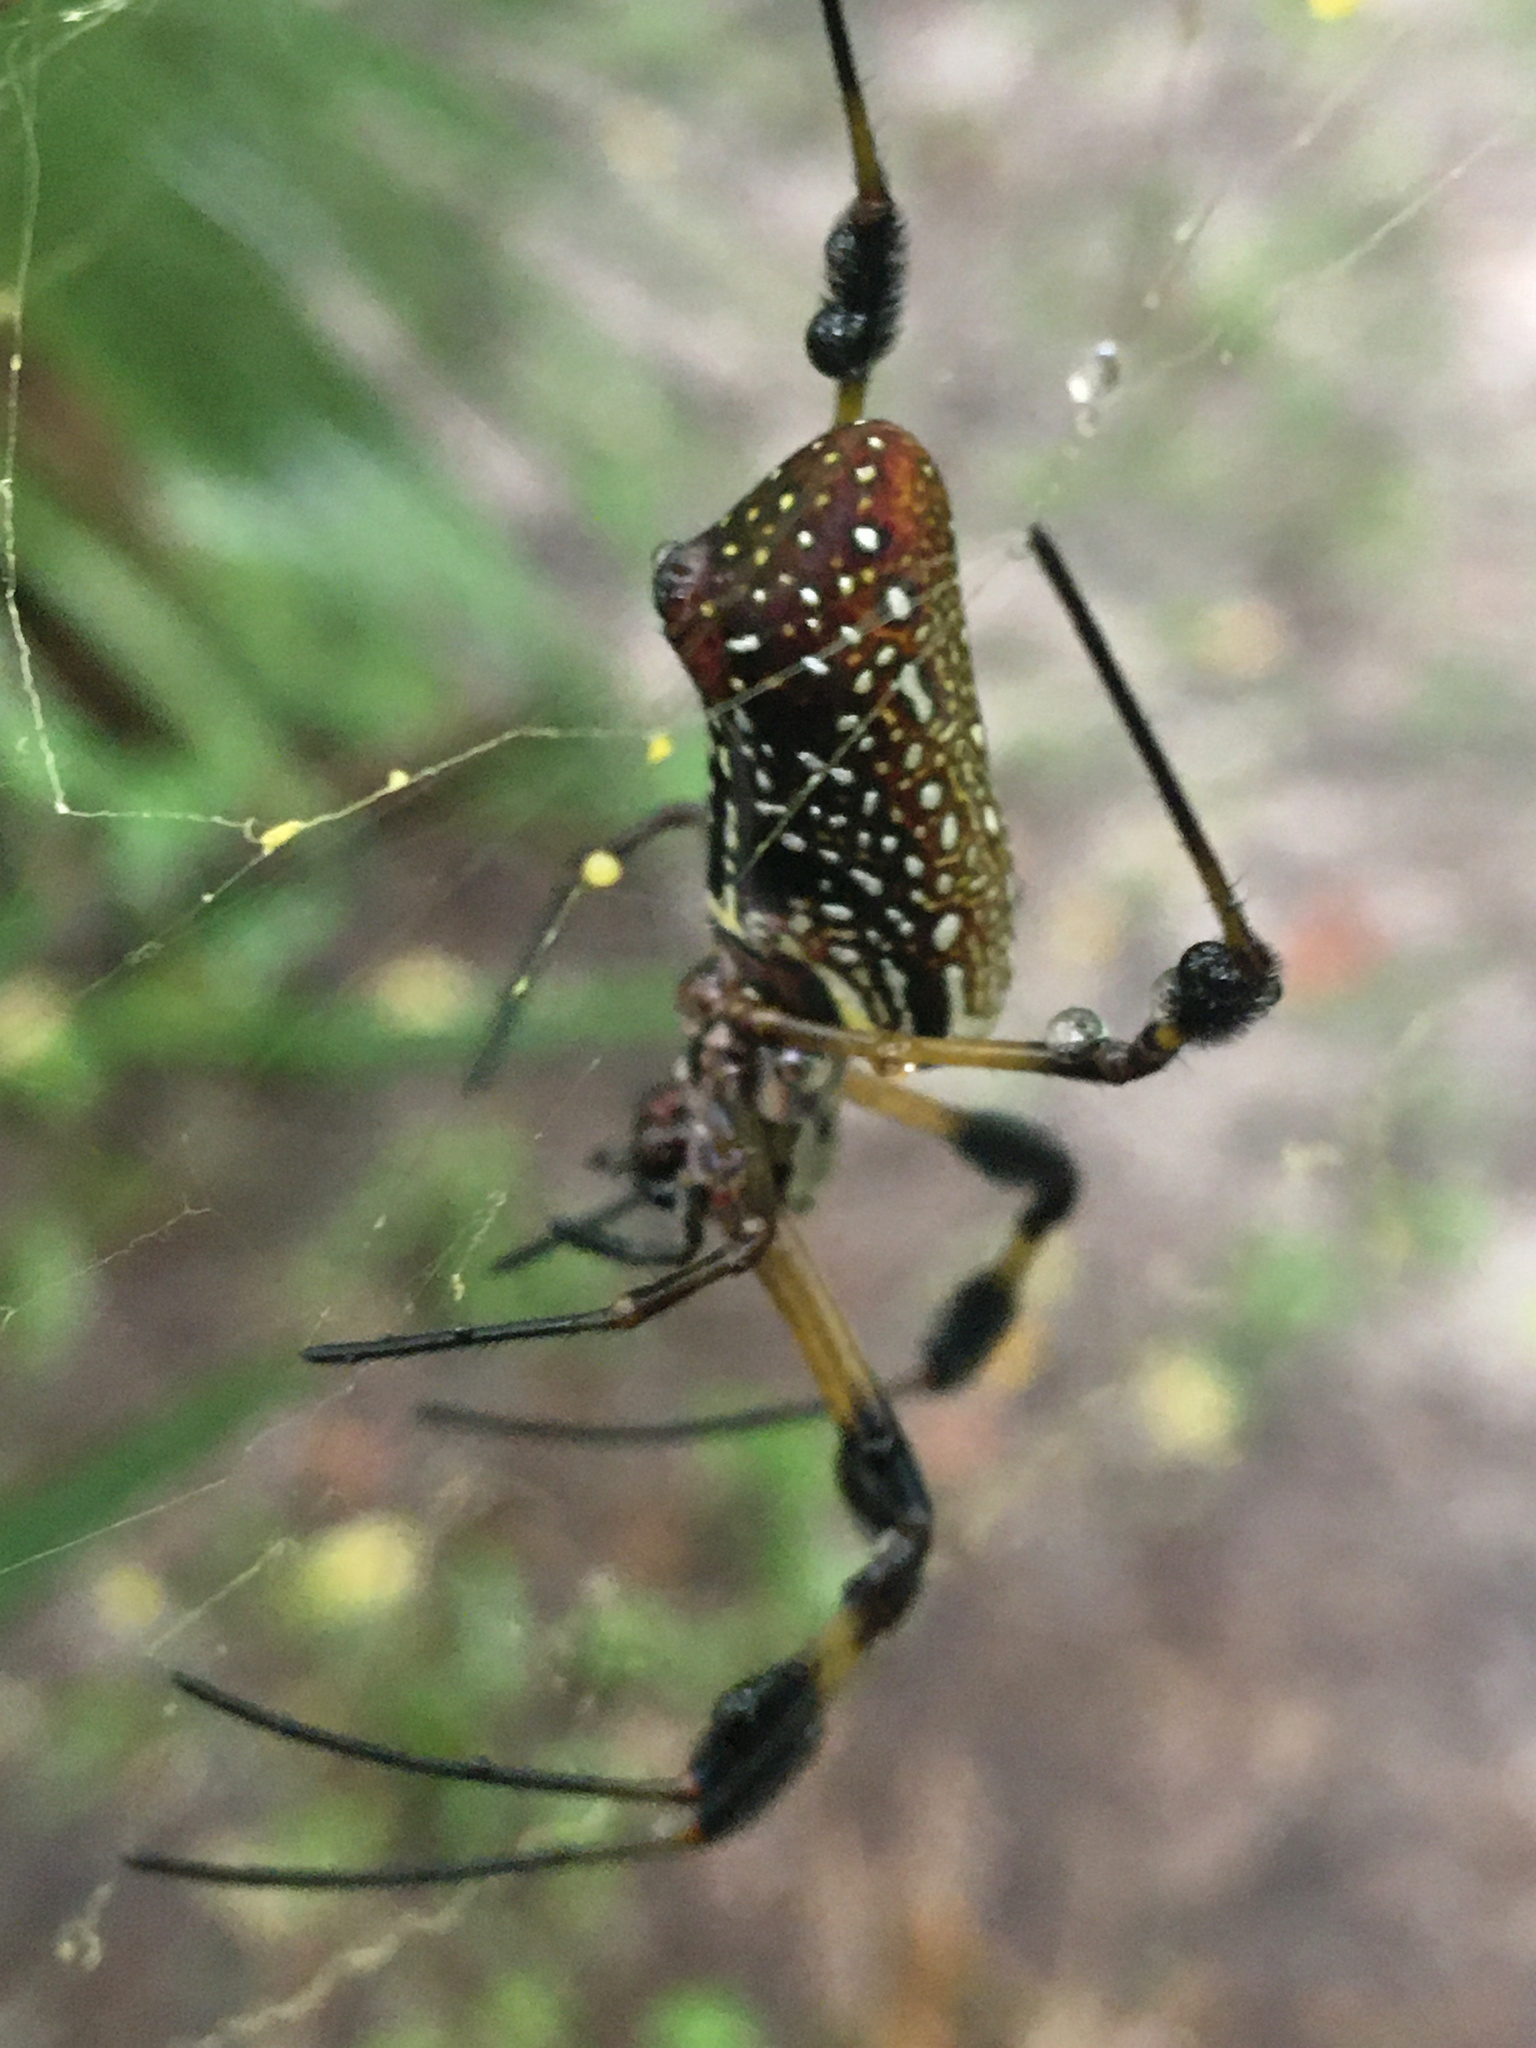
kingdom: Animalia
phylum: Arthropoda
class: Arachnida
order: Araneae
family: Araneidae
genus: Trichonephila
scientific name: Trichonephila clavipes
